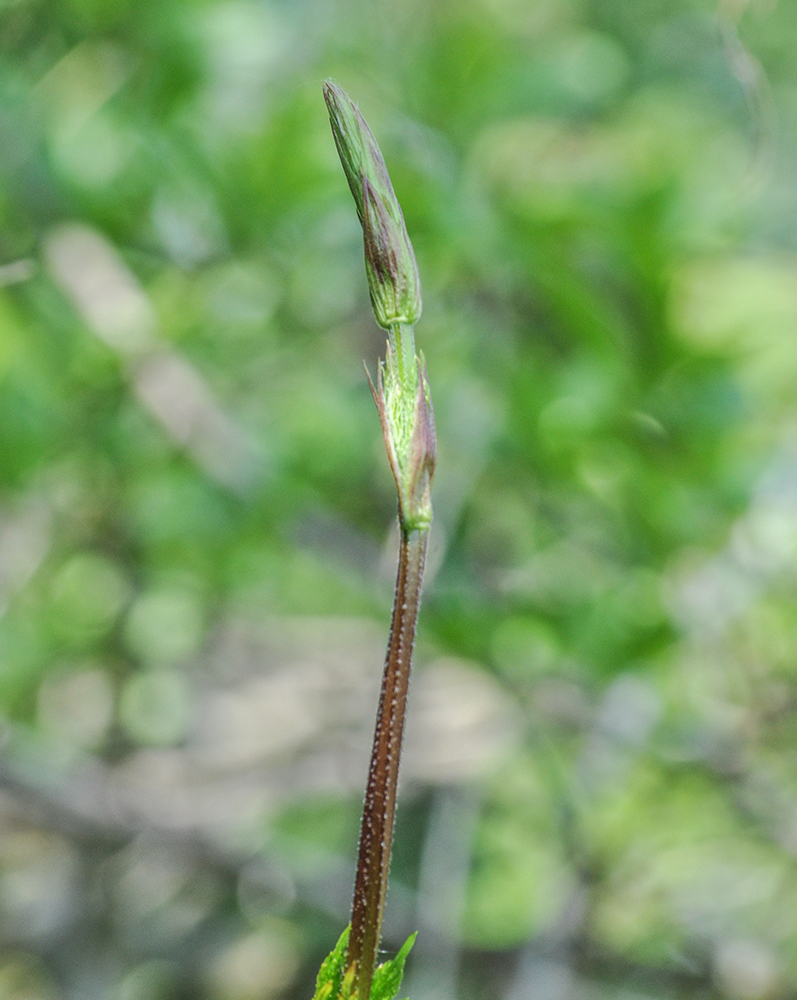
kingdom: Plantae
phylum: Tracheophyta
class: Magnoliopsida
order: Rosales
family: Cannabaceae
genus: Humulus
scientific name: Humulus lupulus
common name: Hop
